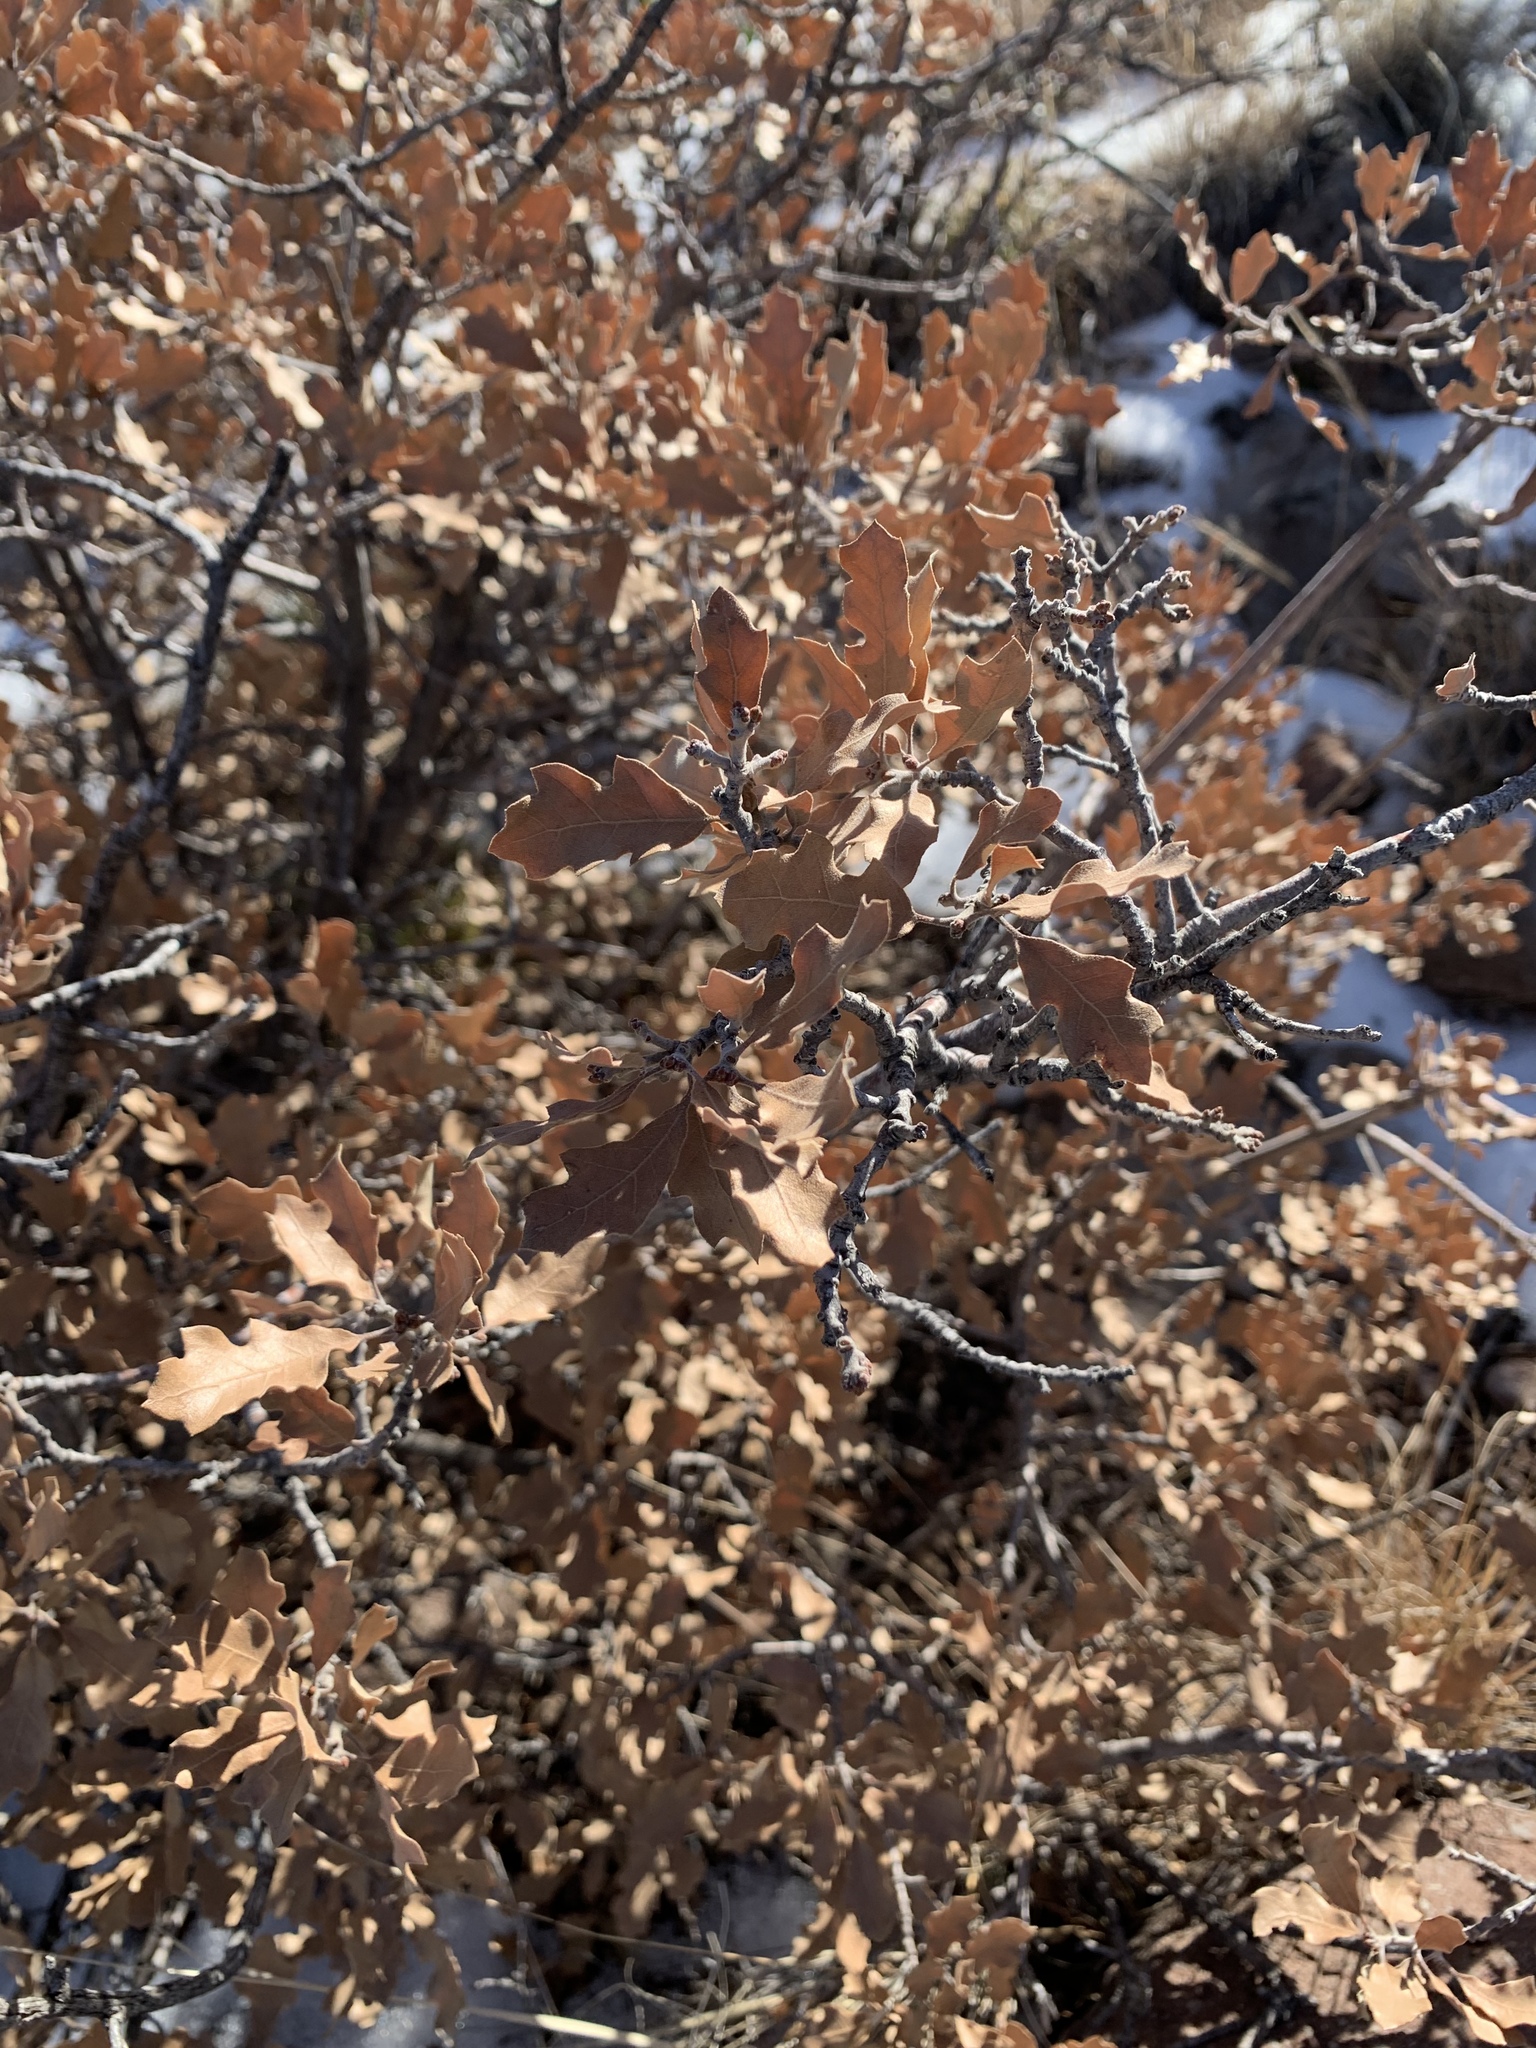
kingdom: Plantae
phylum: Tracheophyta
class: Magnoliopsida
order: Fagales
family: Fagaceae
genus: Quercus
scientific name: Quercus undulata
